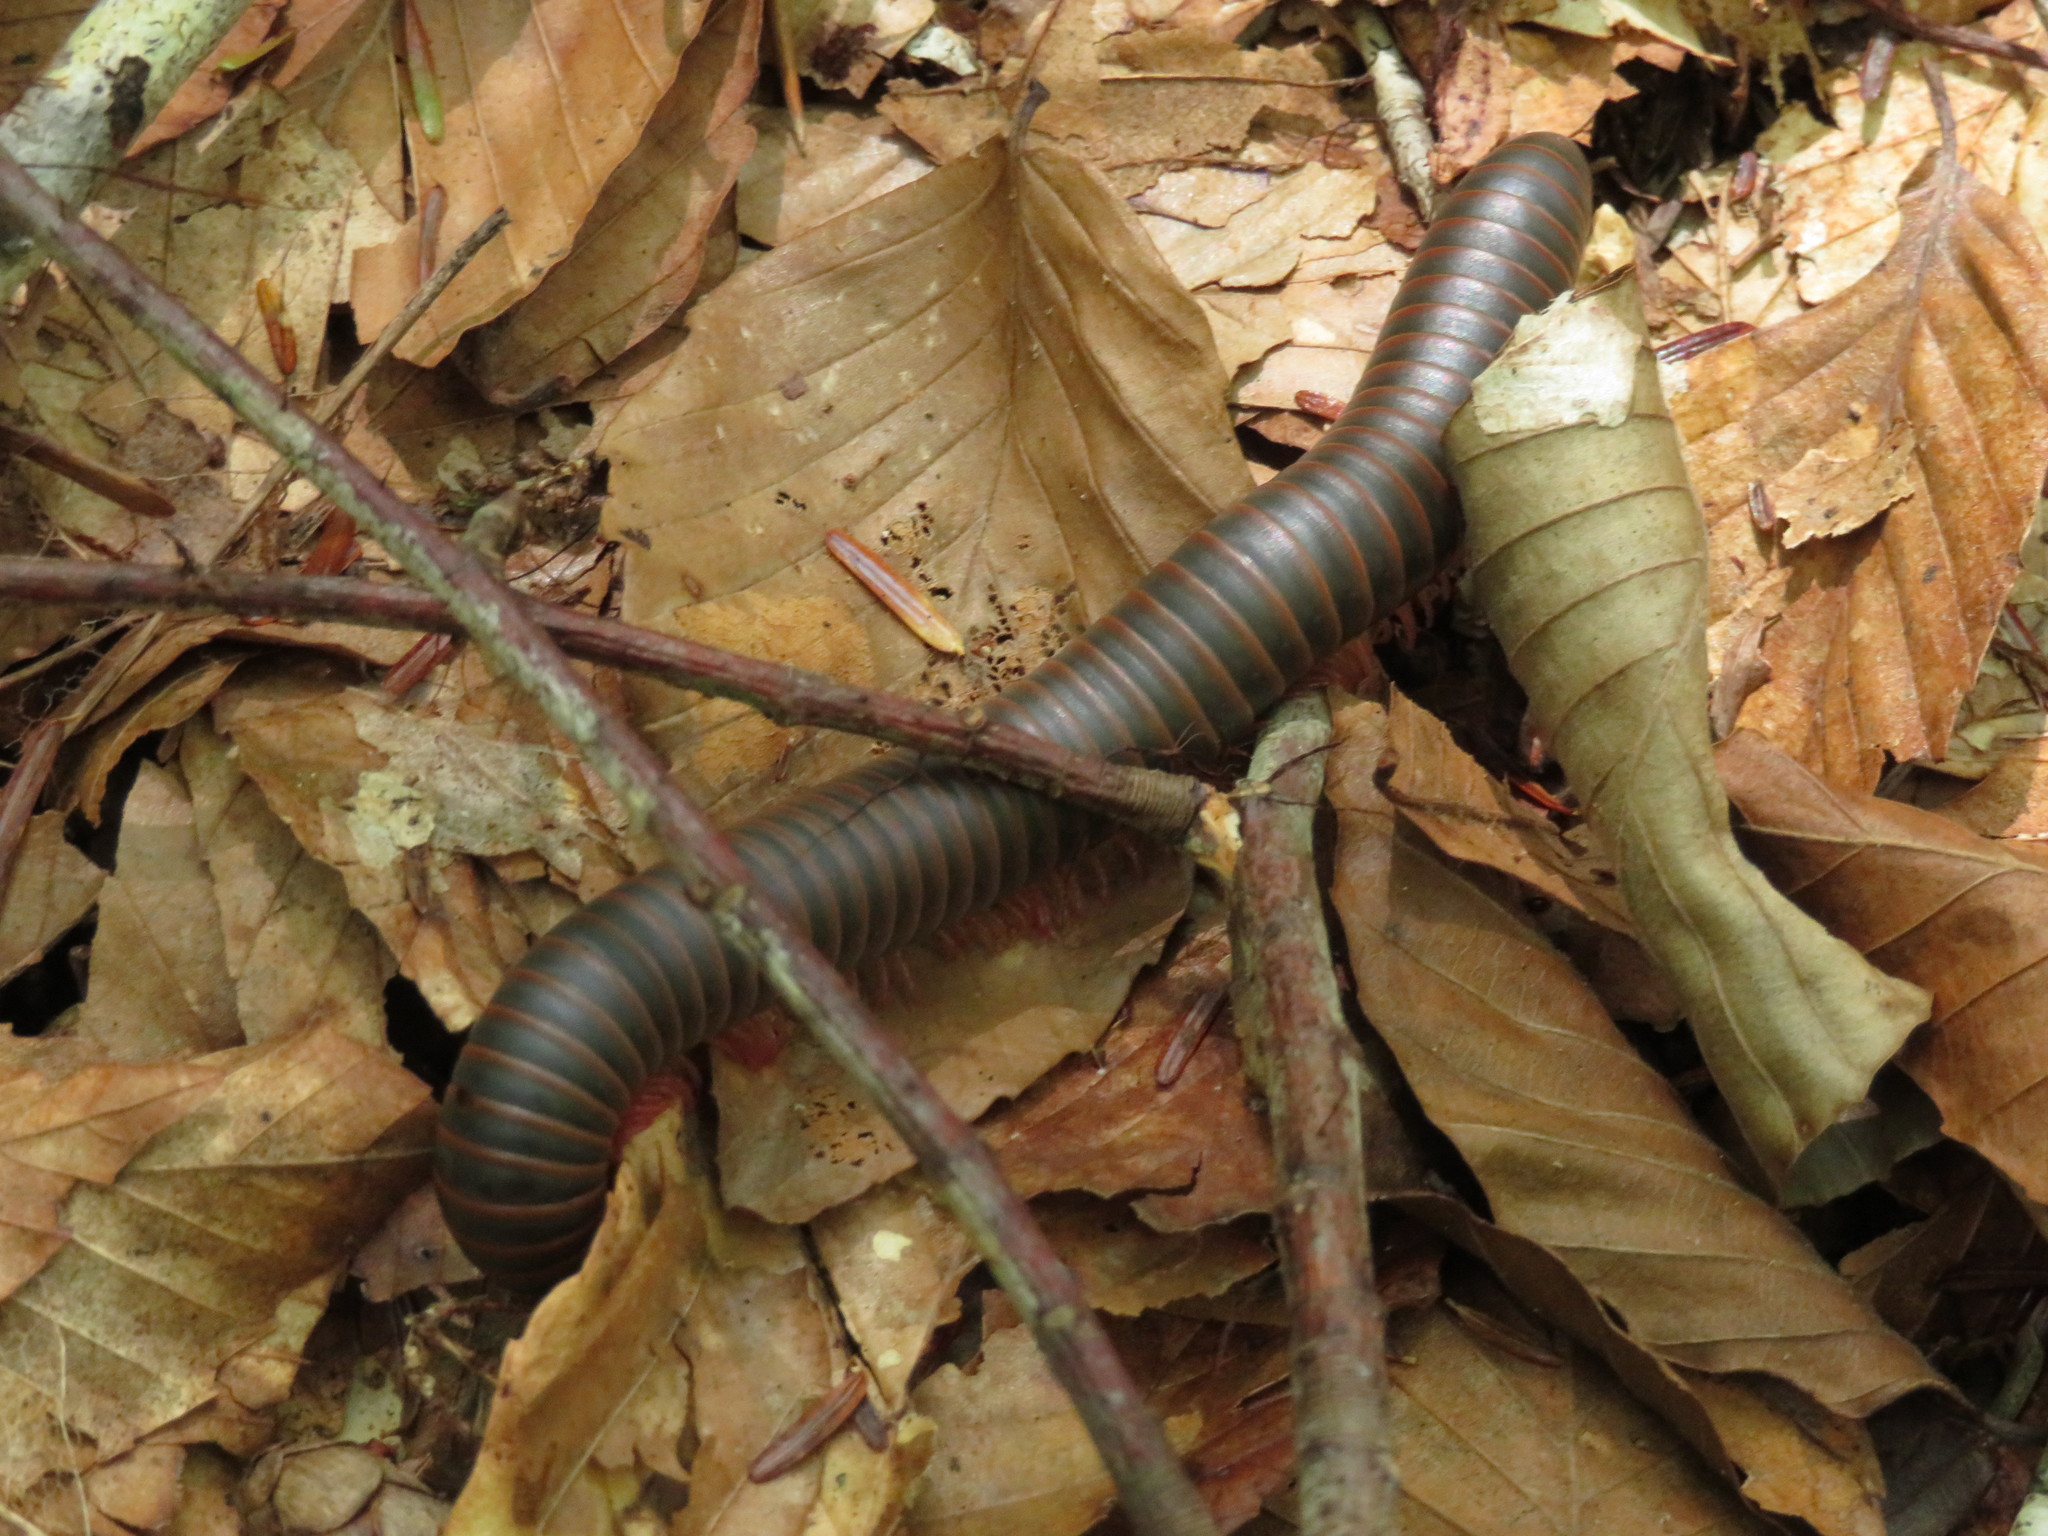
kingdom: Animalia
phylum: Arthropoda
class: Diplopoda
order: Spirobolida
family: Spirobolidae
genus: Narceus
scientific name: Narceus
